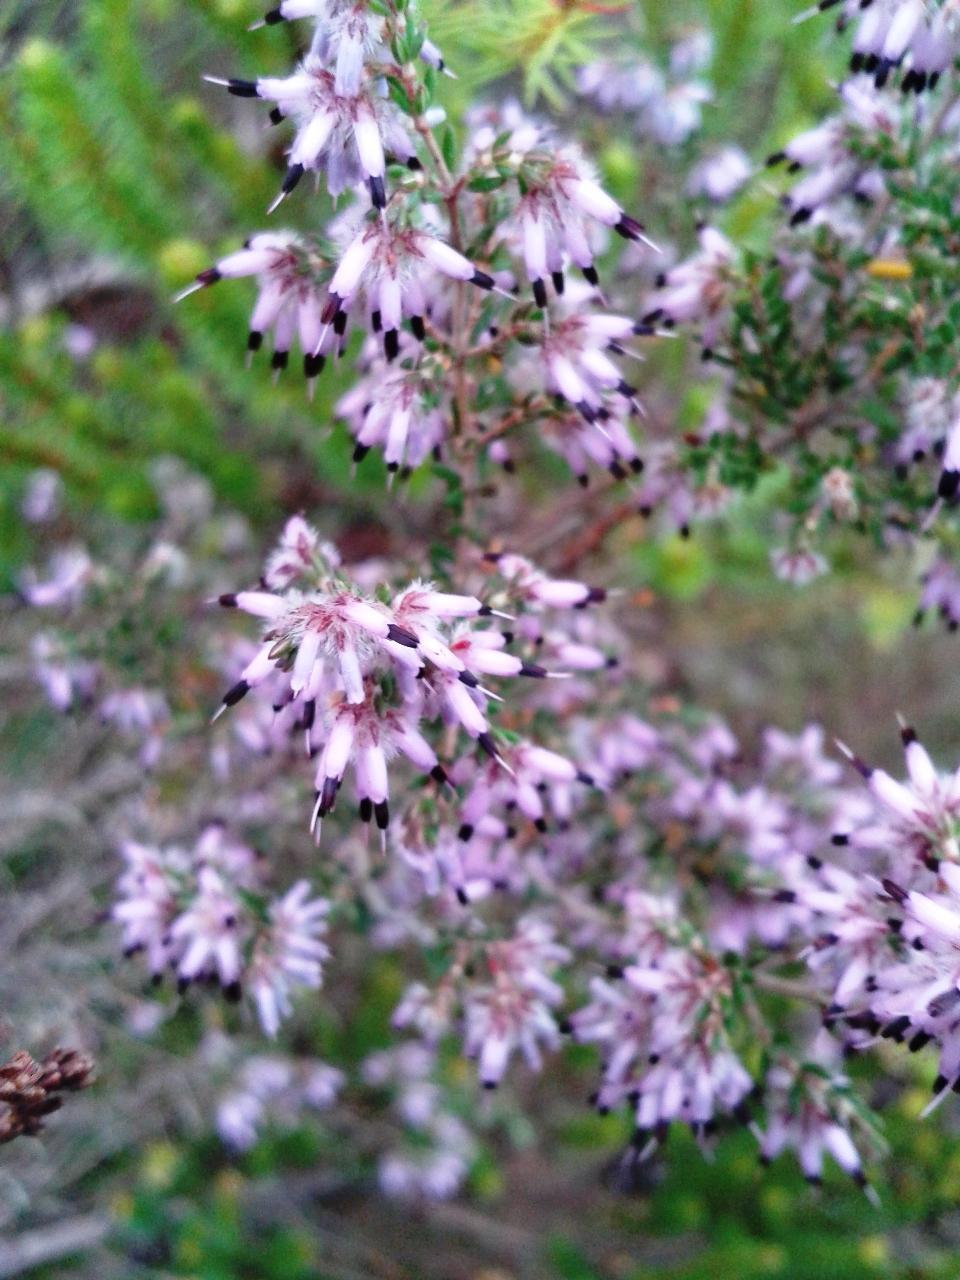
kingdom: Plantae
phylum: Tracheophyta
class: Magnoliopsida
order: Ericales
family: Ericaceae
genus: Erica
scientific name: Erica eriocephala
